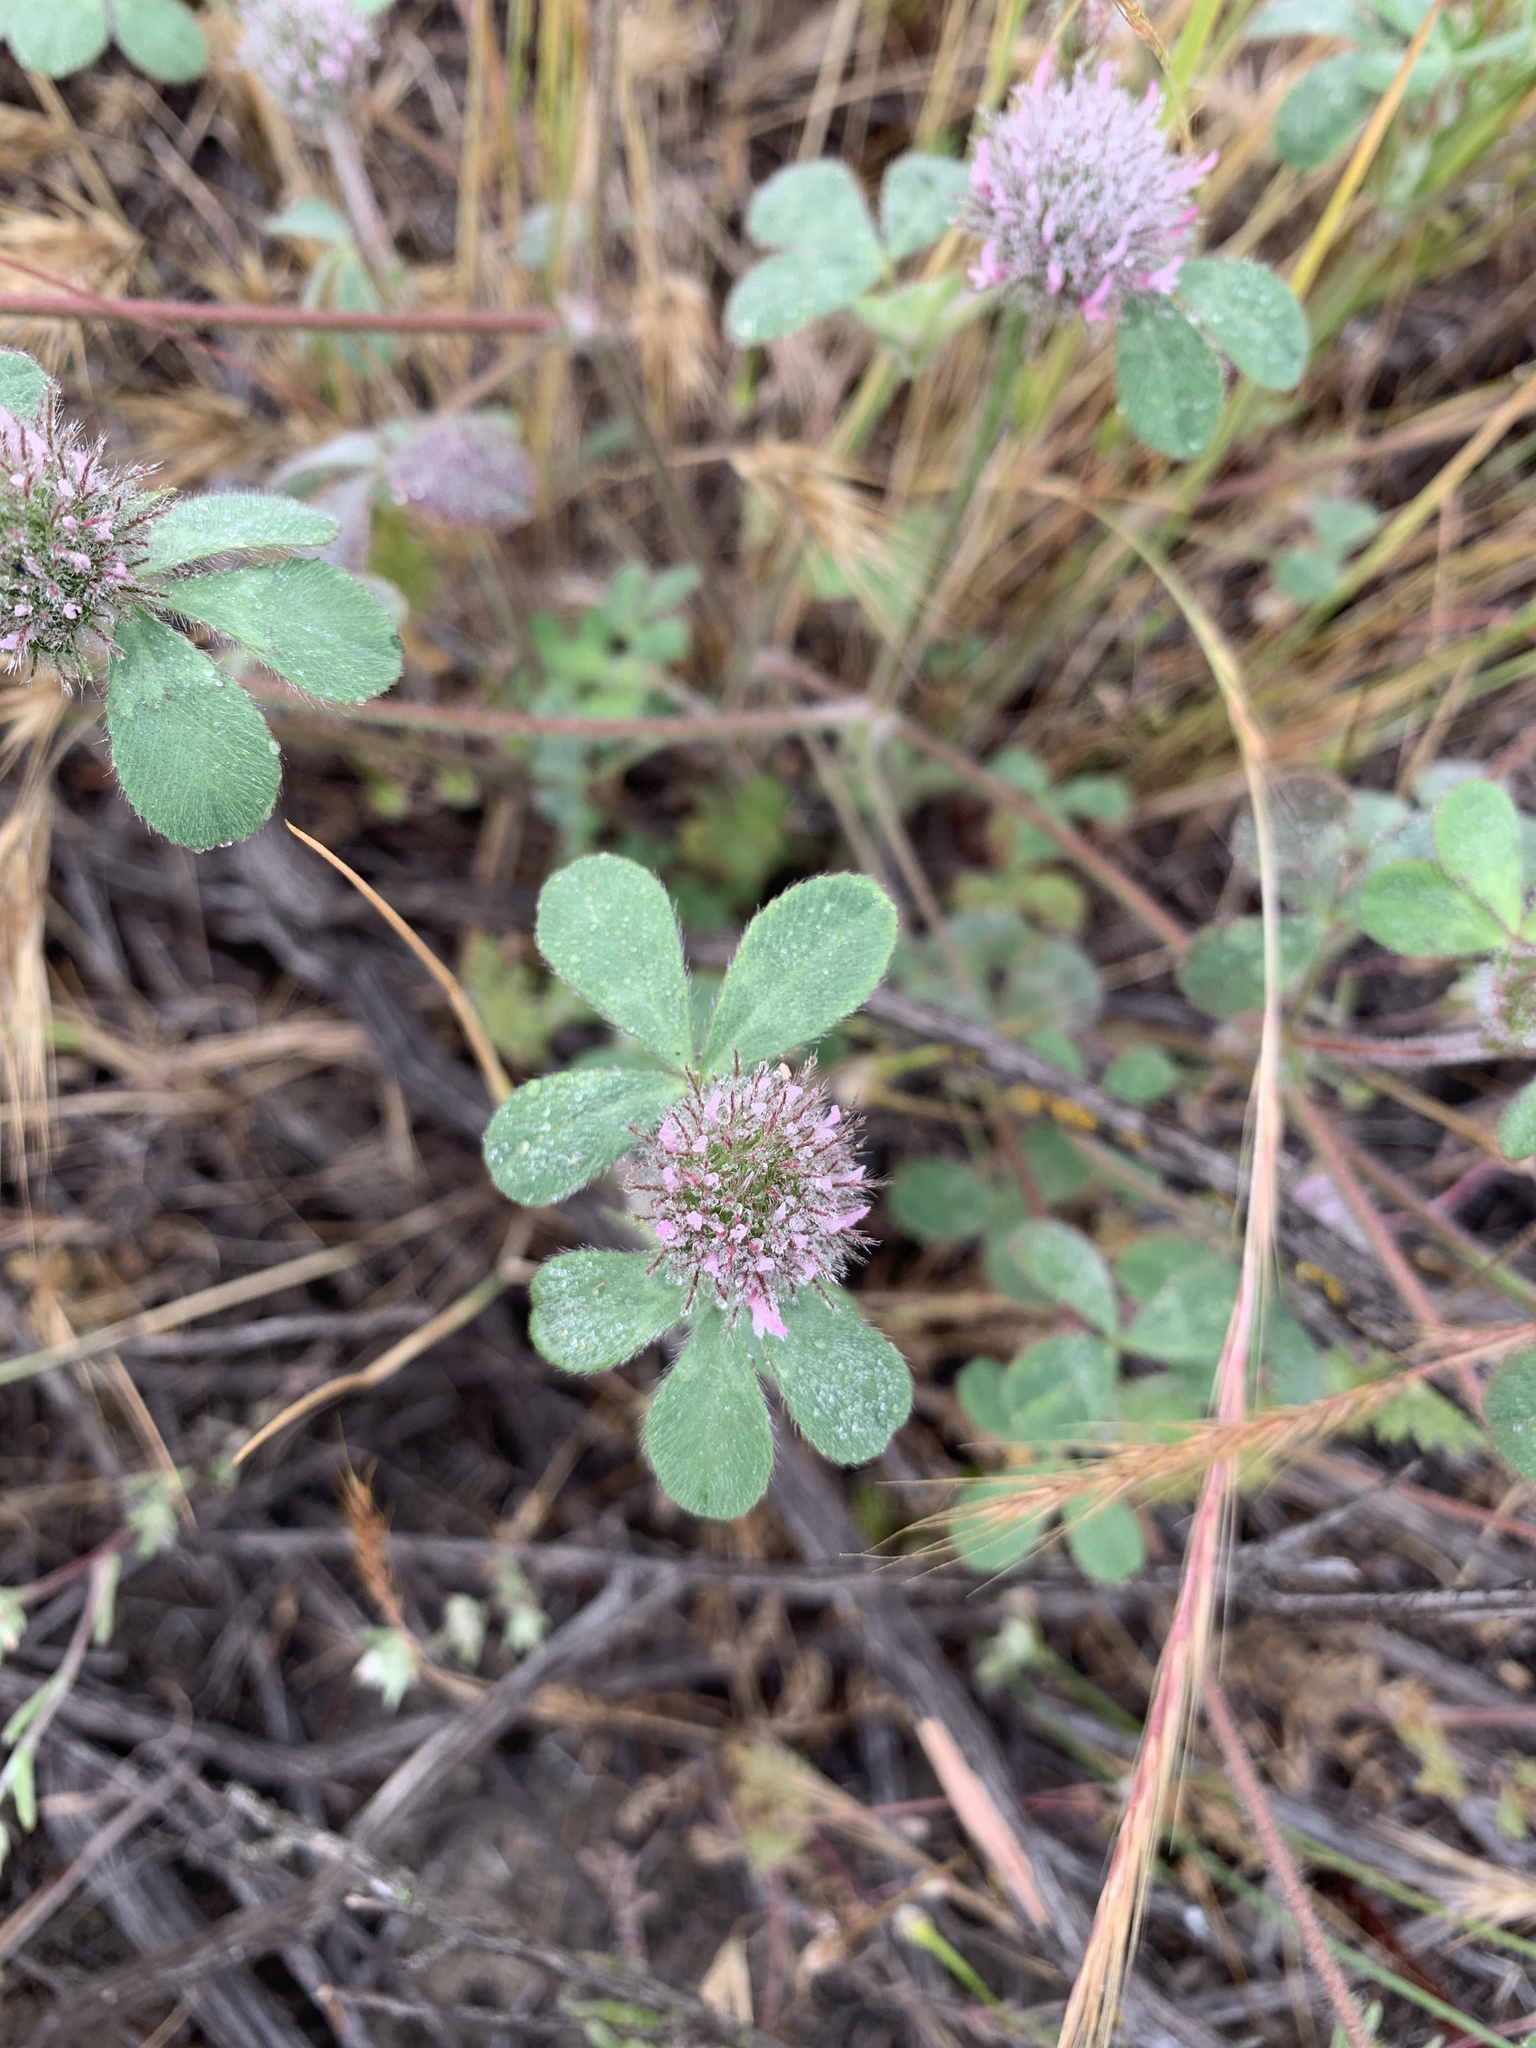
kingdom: Plantae
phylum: Tracheophyta
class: Magnoliopsida
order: Fabales
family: Fabaceae
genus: Trifolium
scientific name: Trifolium hirtum
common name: Rose clover
